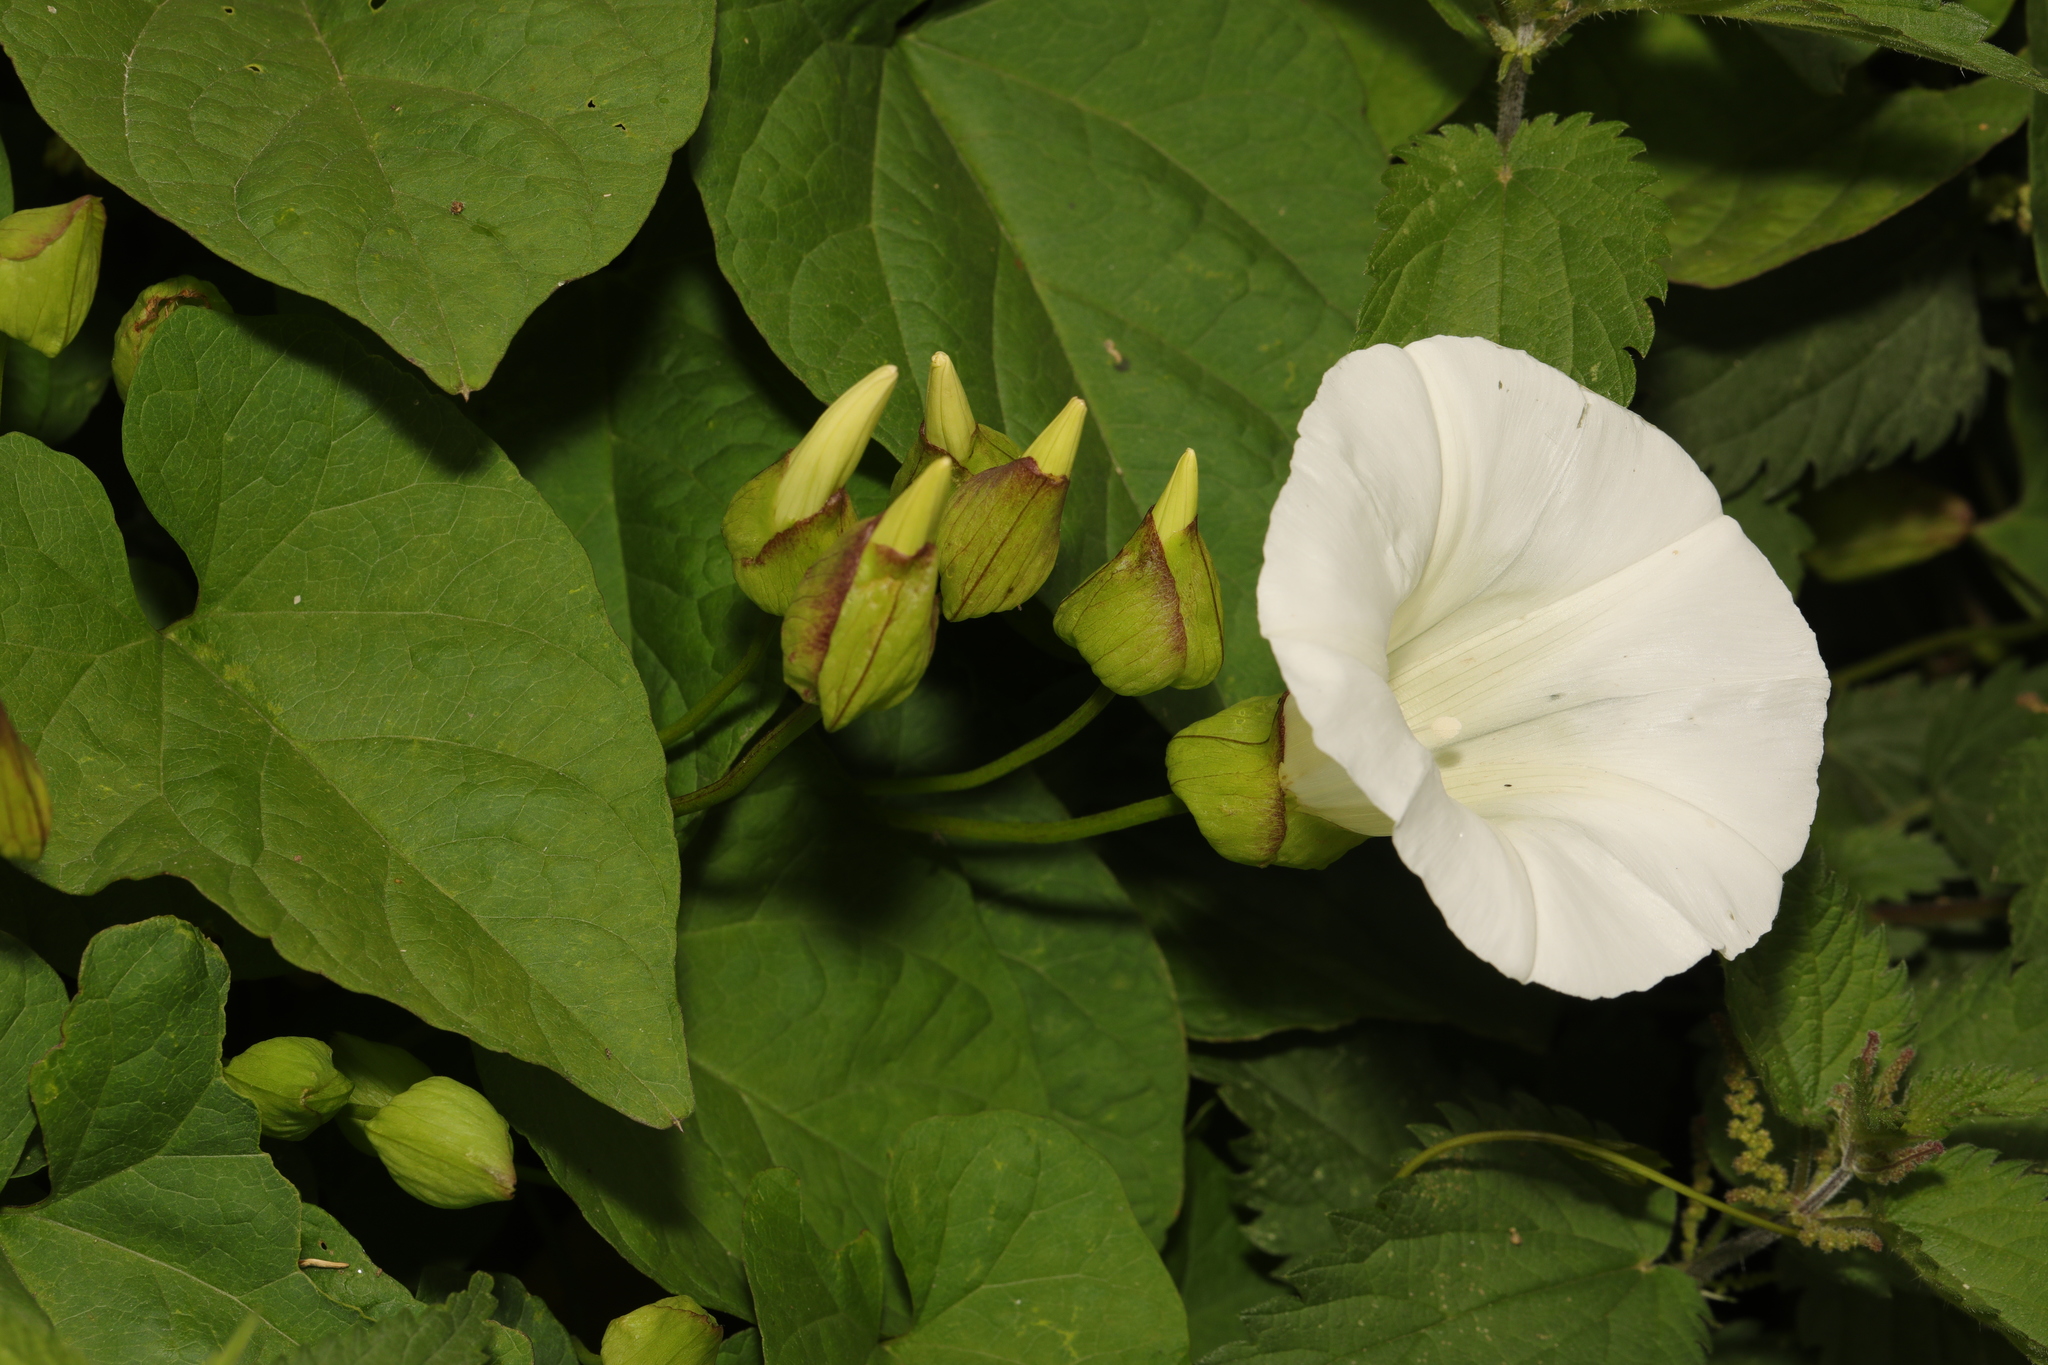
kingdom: Plantae
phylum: Tracheophyta
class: Magnoliopsida
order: Solanales
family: Convolvulaceae
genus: Calystegia
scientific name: Calystegia silvatica
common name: Large bindweed
